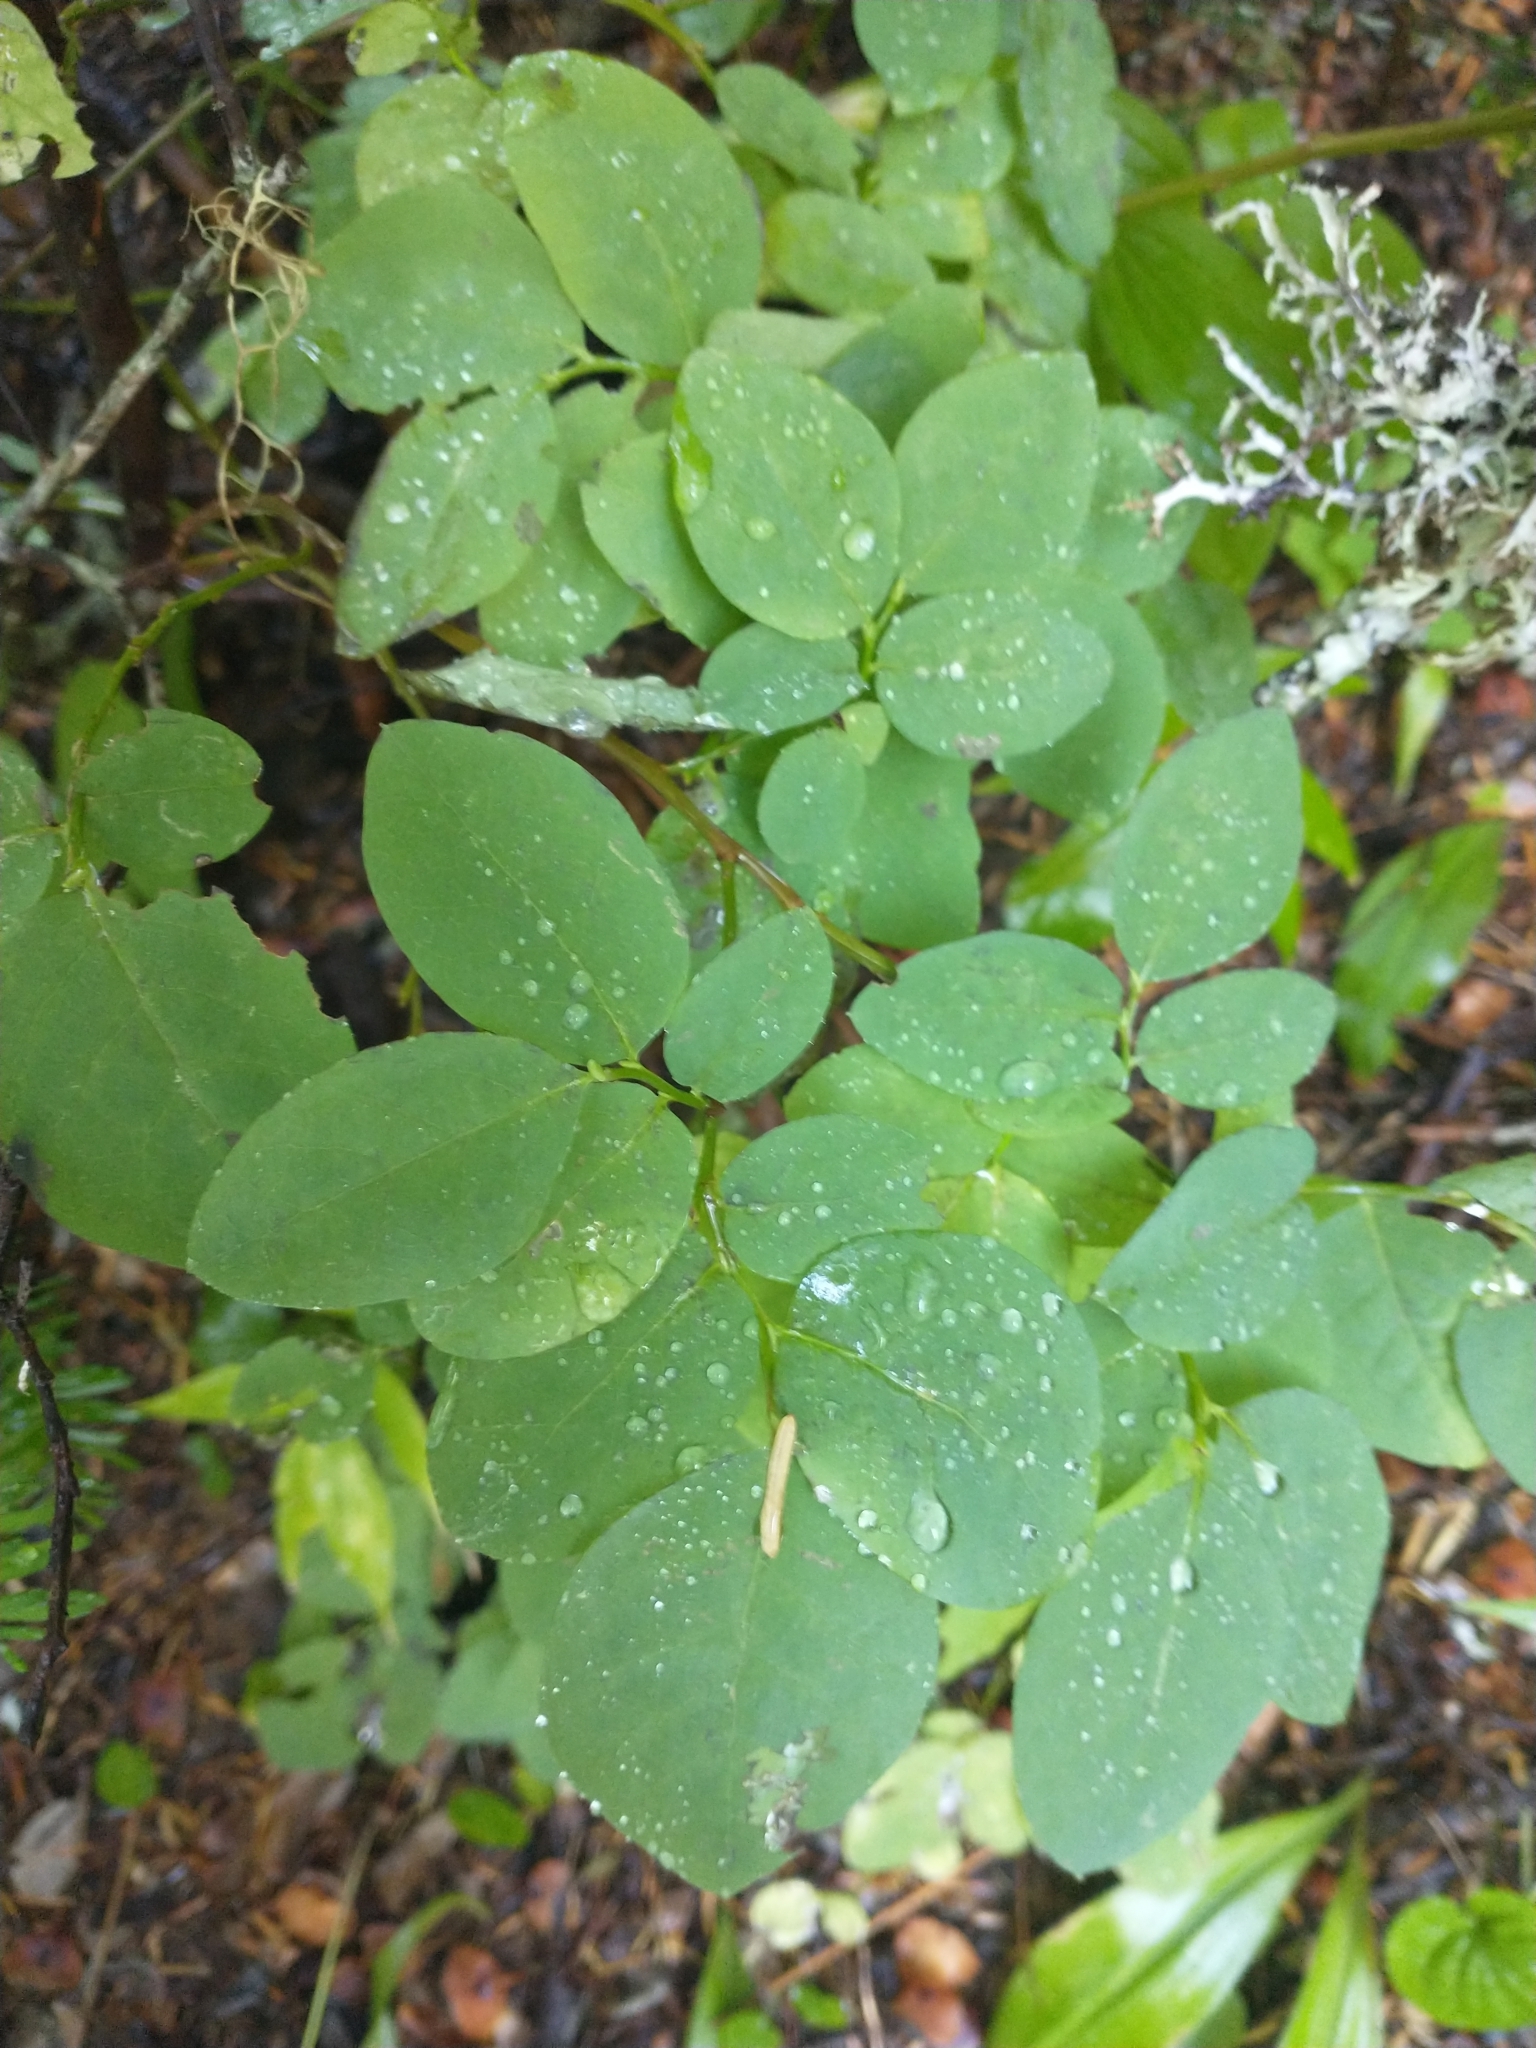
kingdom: Plantae
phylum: Tracheophyta
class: Magnoliopsida
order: Ericales
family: Ericaceae
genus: Vaccinium
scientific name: Vaccinium ovalifolium
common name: Early blueberry
